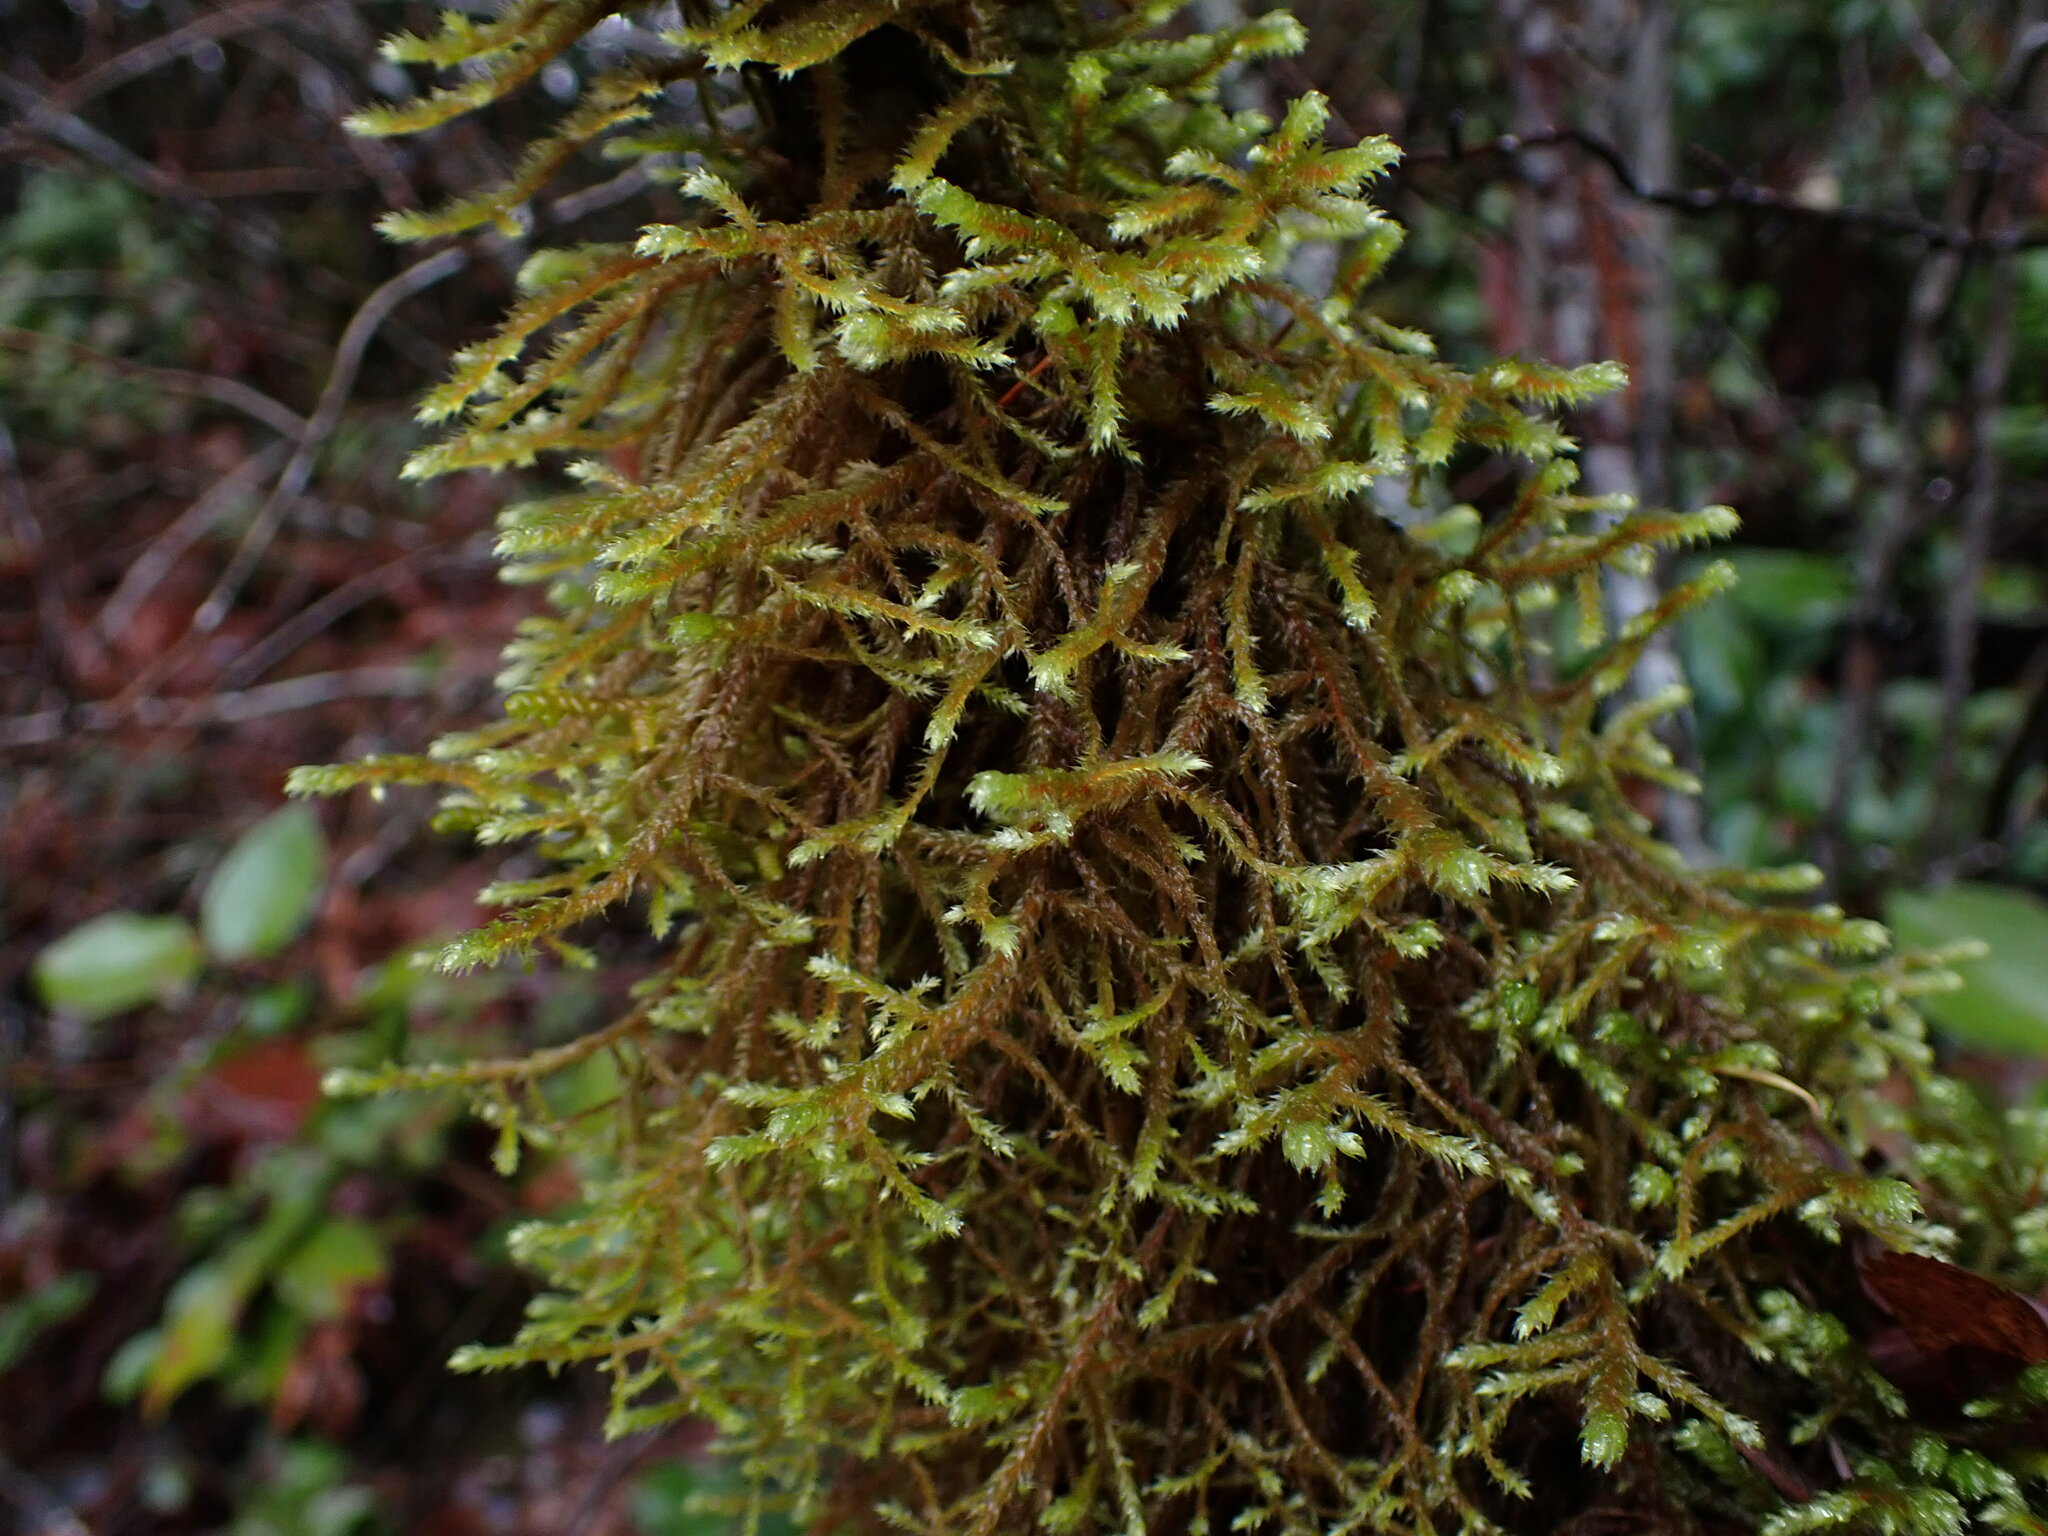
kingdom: Plantae
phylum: Bryophyta
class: Bryopsida
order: Hypnales
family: Antitrichiaceae
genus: Antitrichia
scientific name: Antitrichia curtipendula
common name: Pendulous wing-moss
